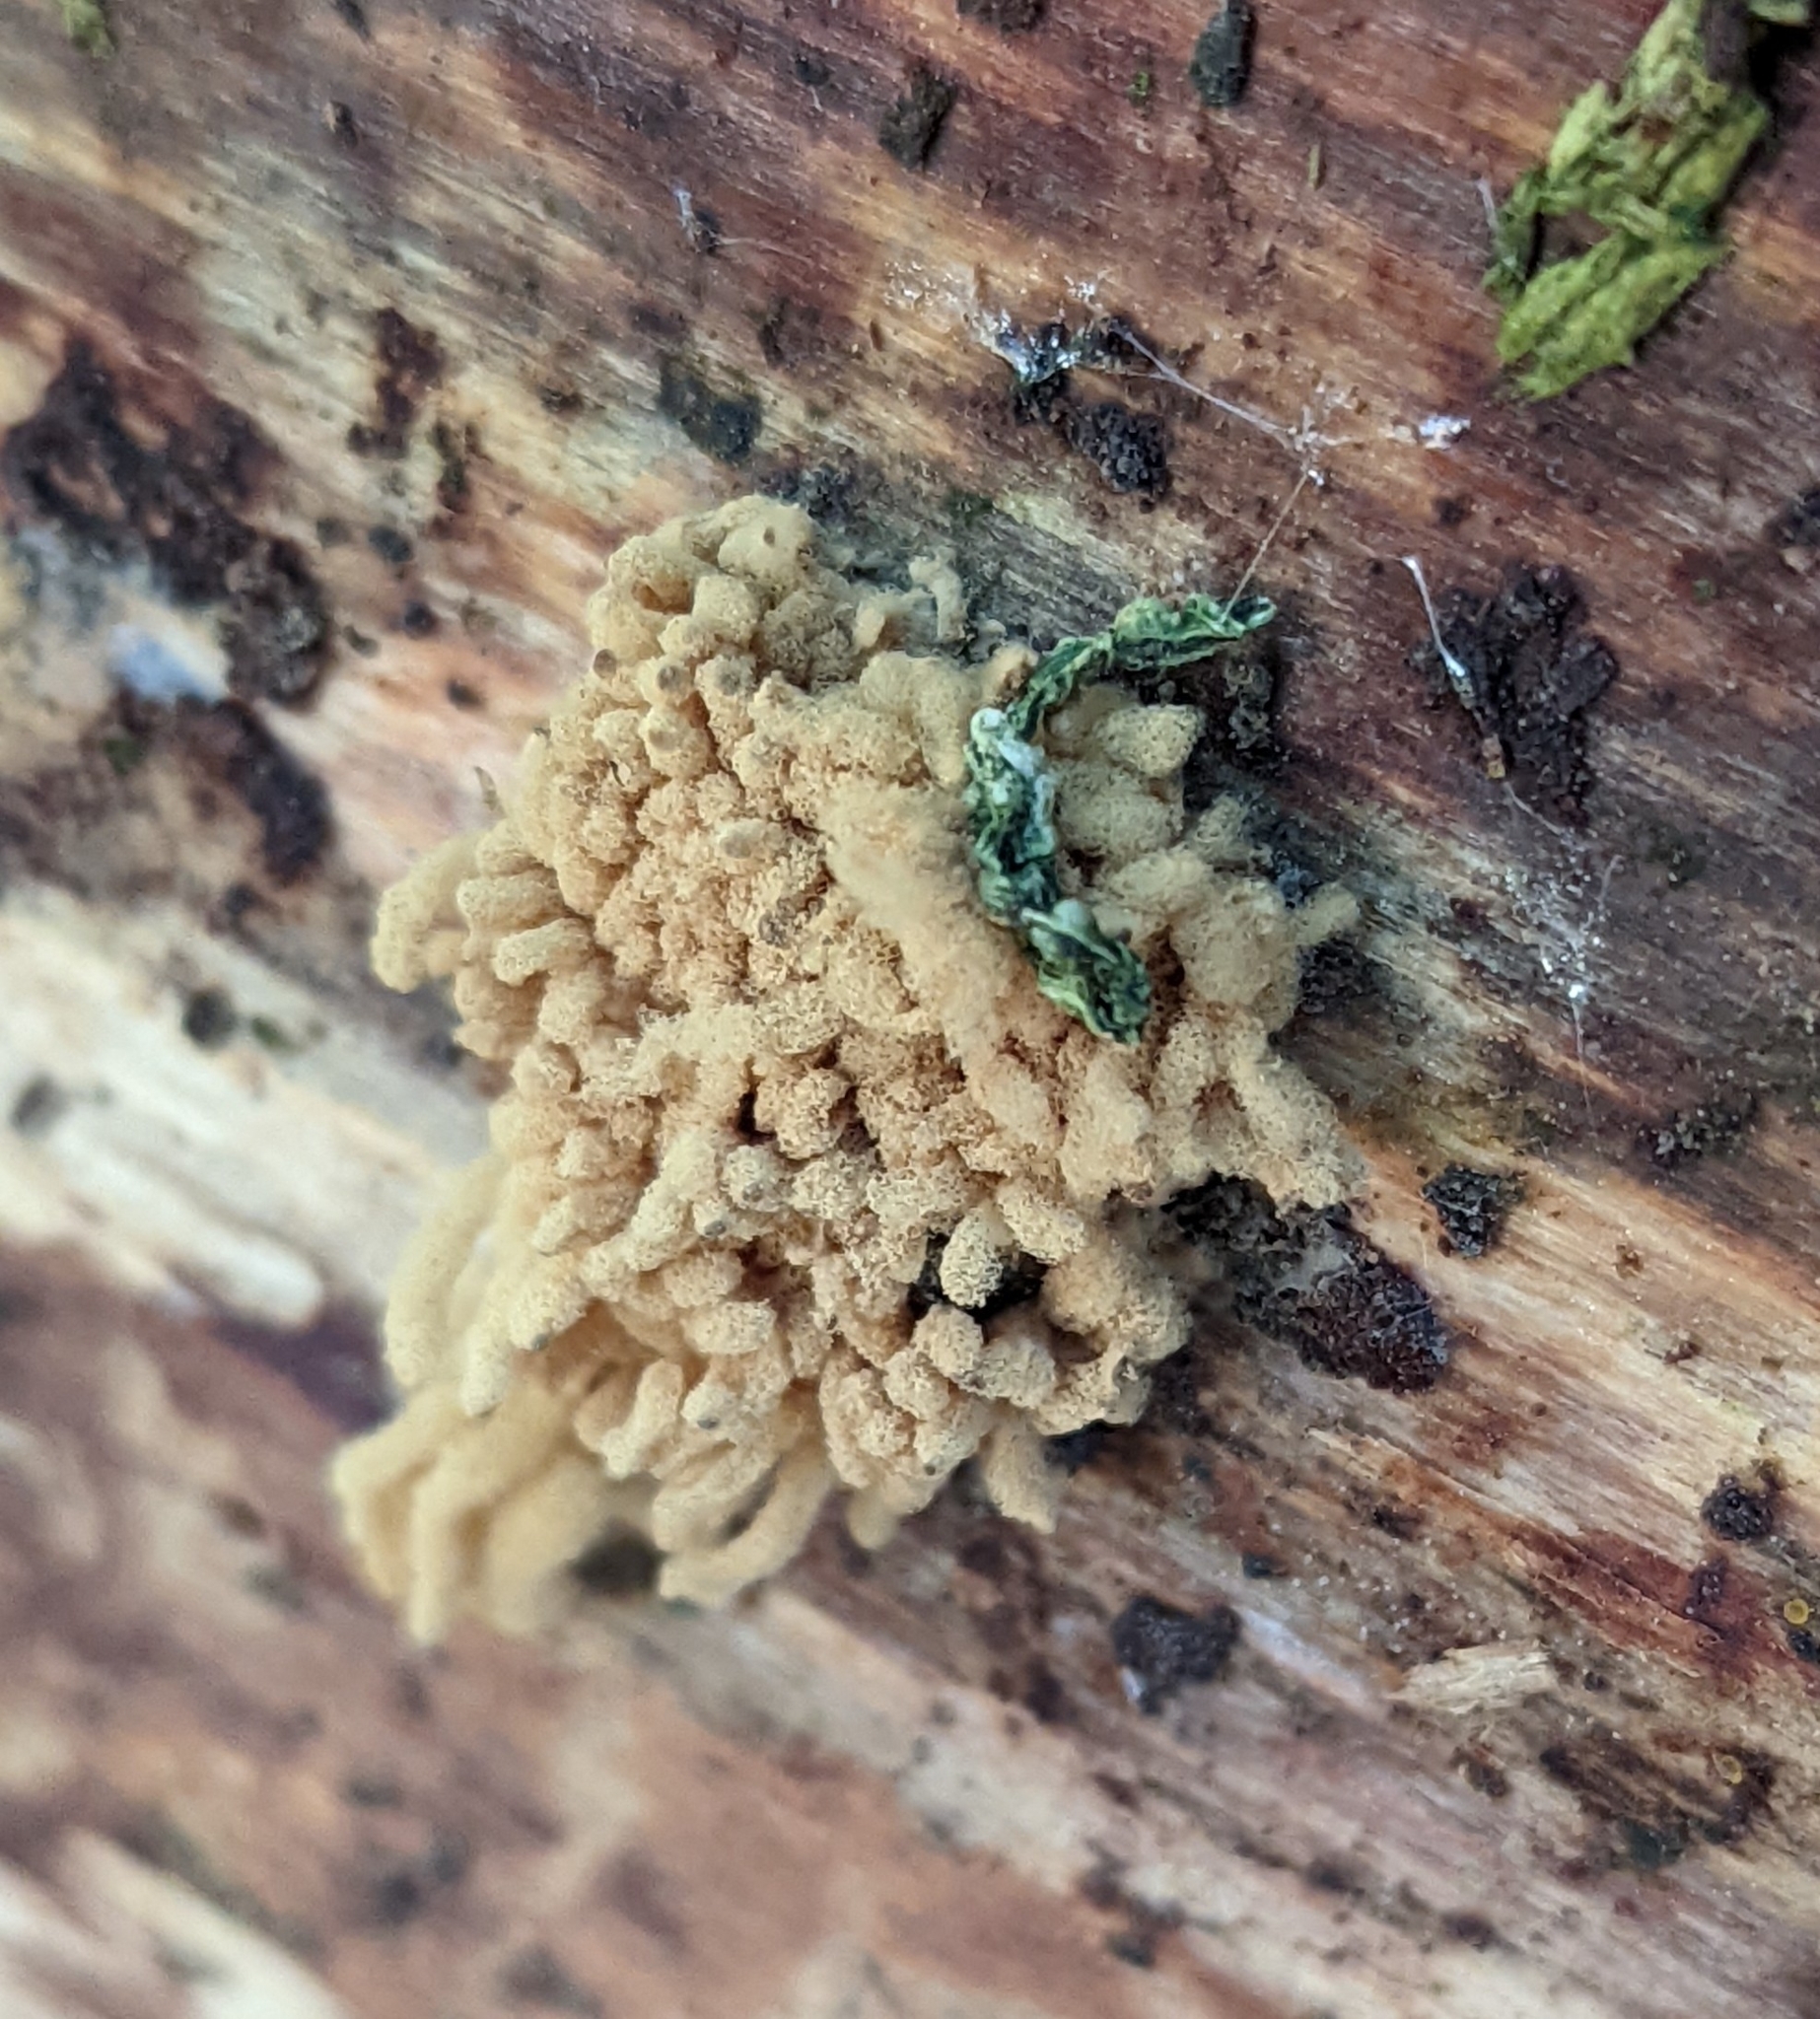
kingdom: Protozoa
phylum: Mycetozoa
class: Myxomycetes
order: Trichiales
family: Arcyriaceae
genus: Arcyria
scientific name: Arcyria obvelata
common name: Yellow carnival candy slime
